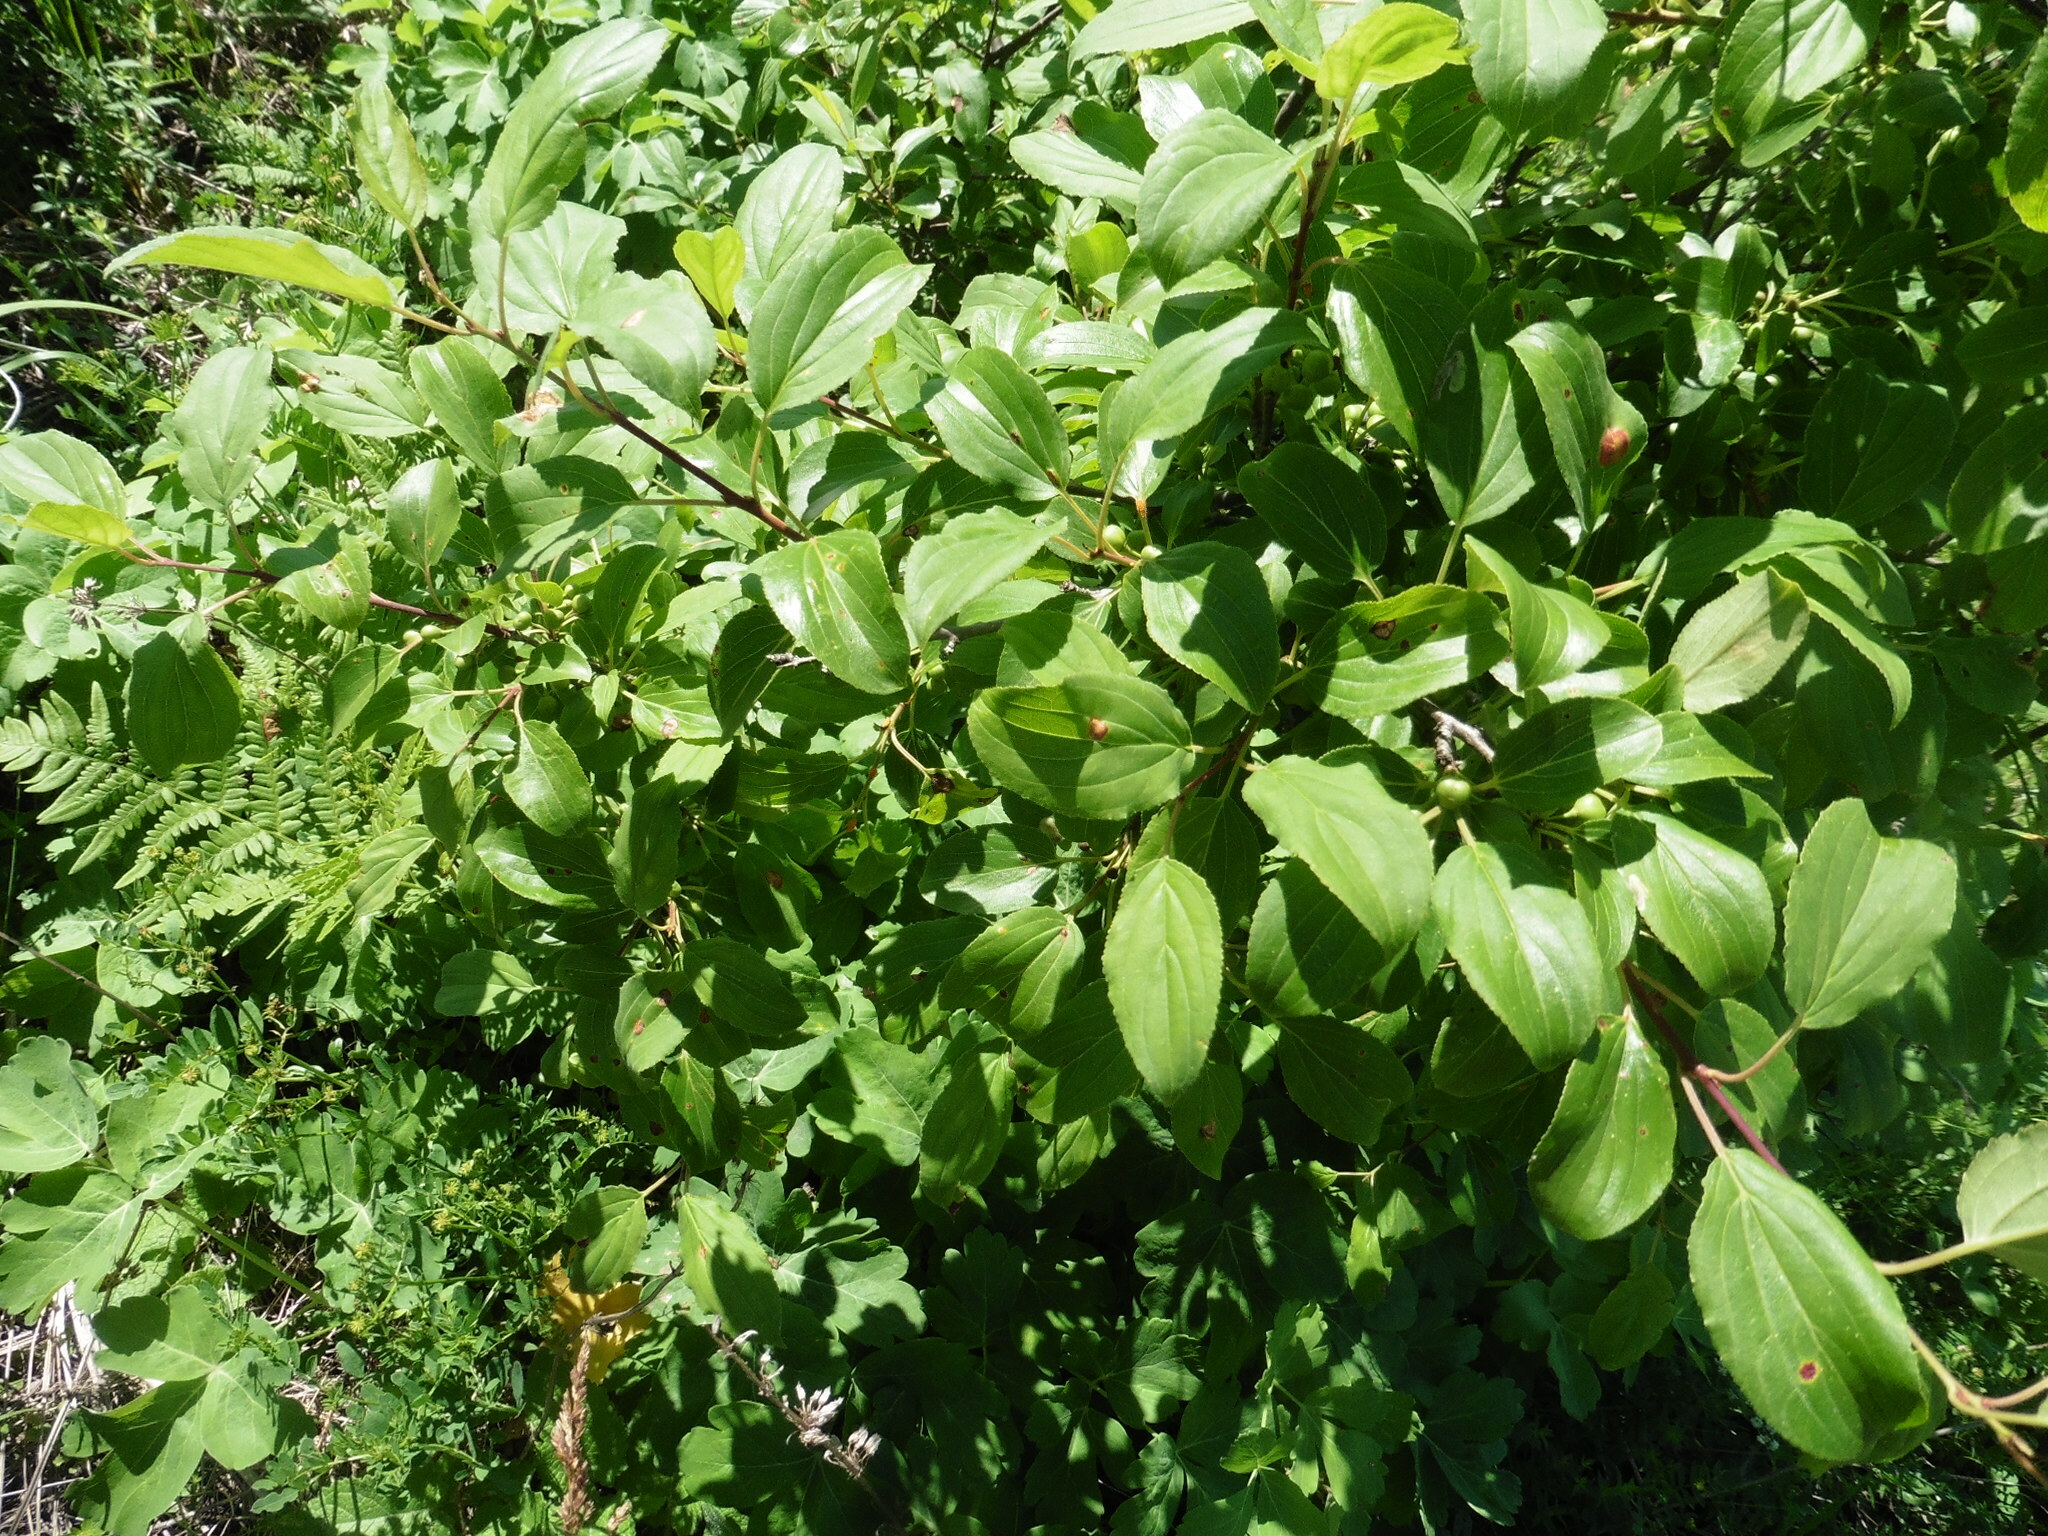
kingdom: Plantae
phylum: Tracheophyta
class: Magnoliopsida
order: Rosales
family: Rhamnaceae
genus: Rhamnus
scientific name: Rhamnus cathartica
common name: Common buckthorn
